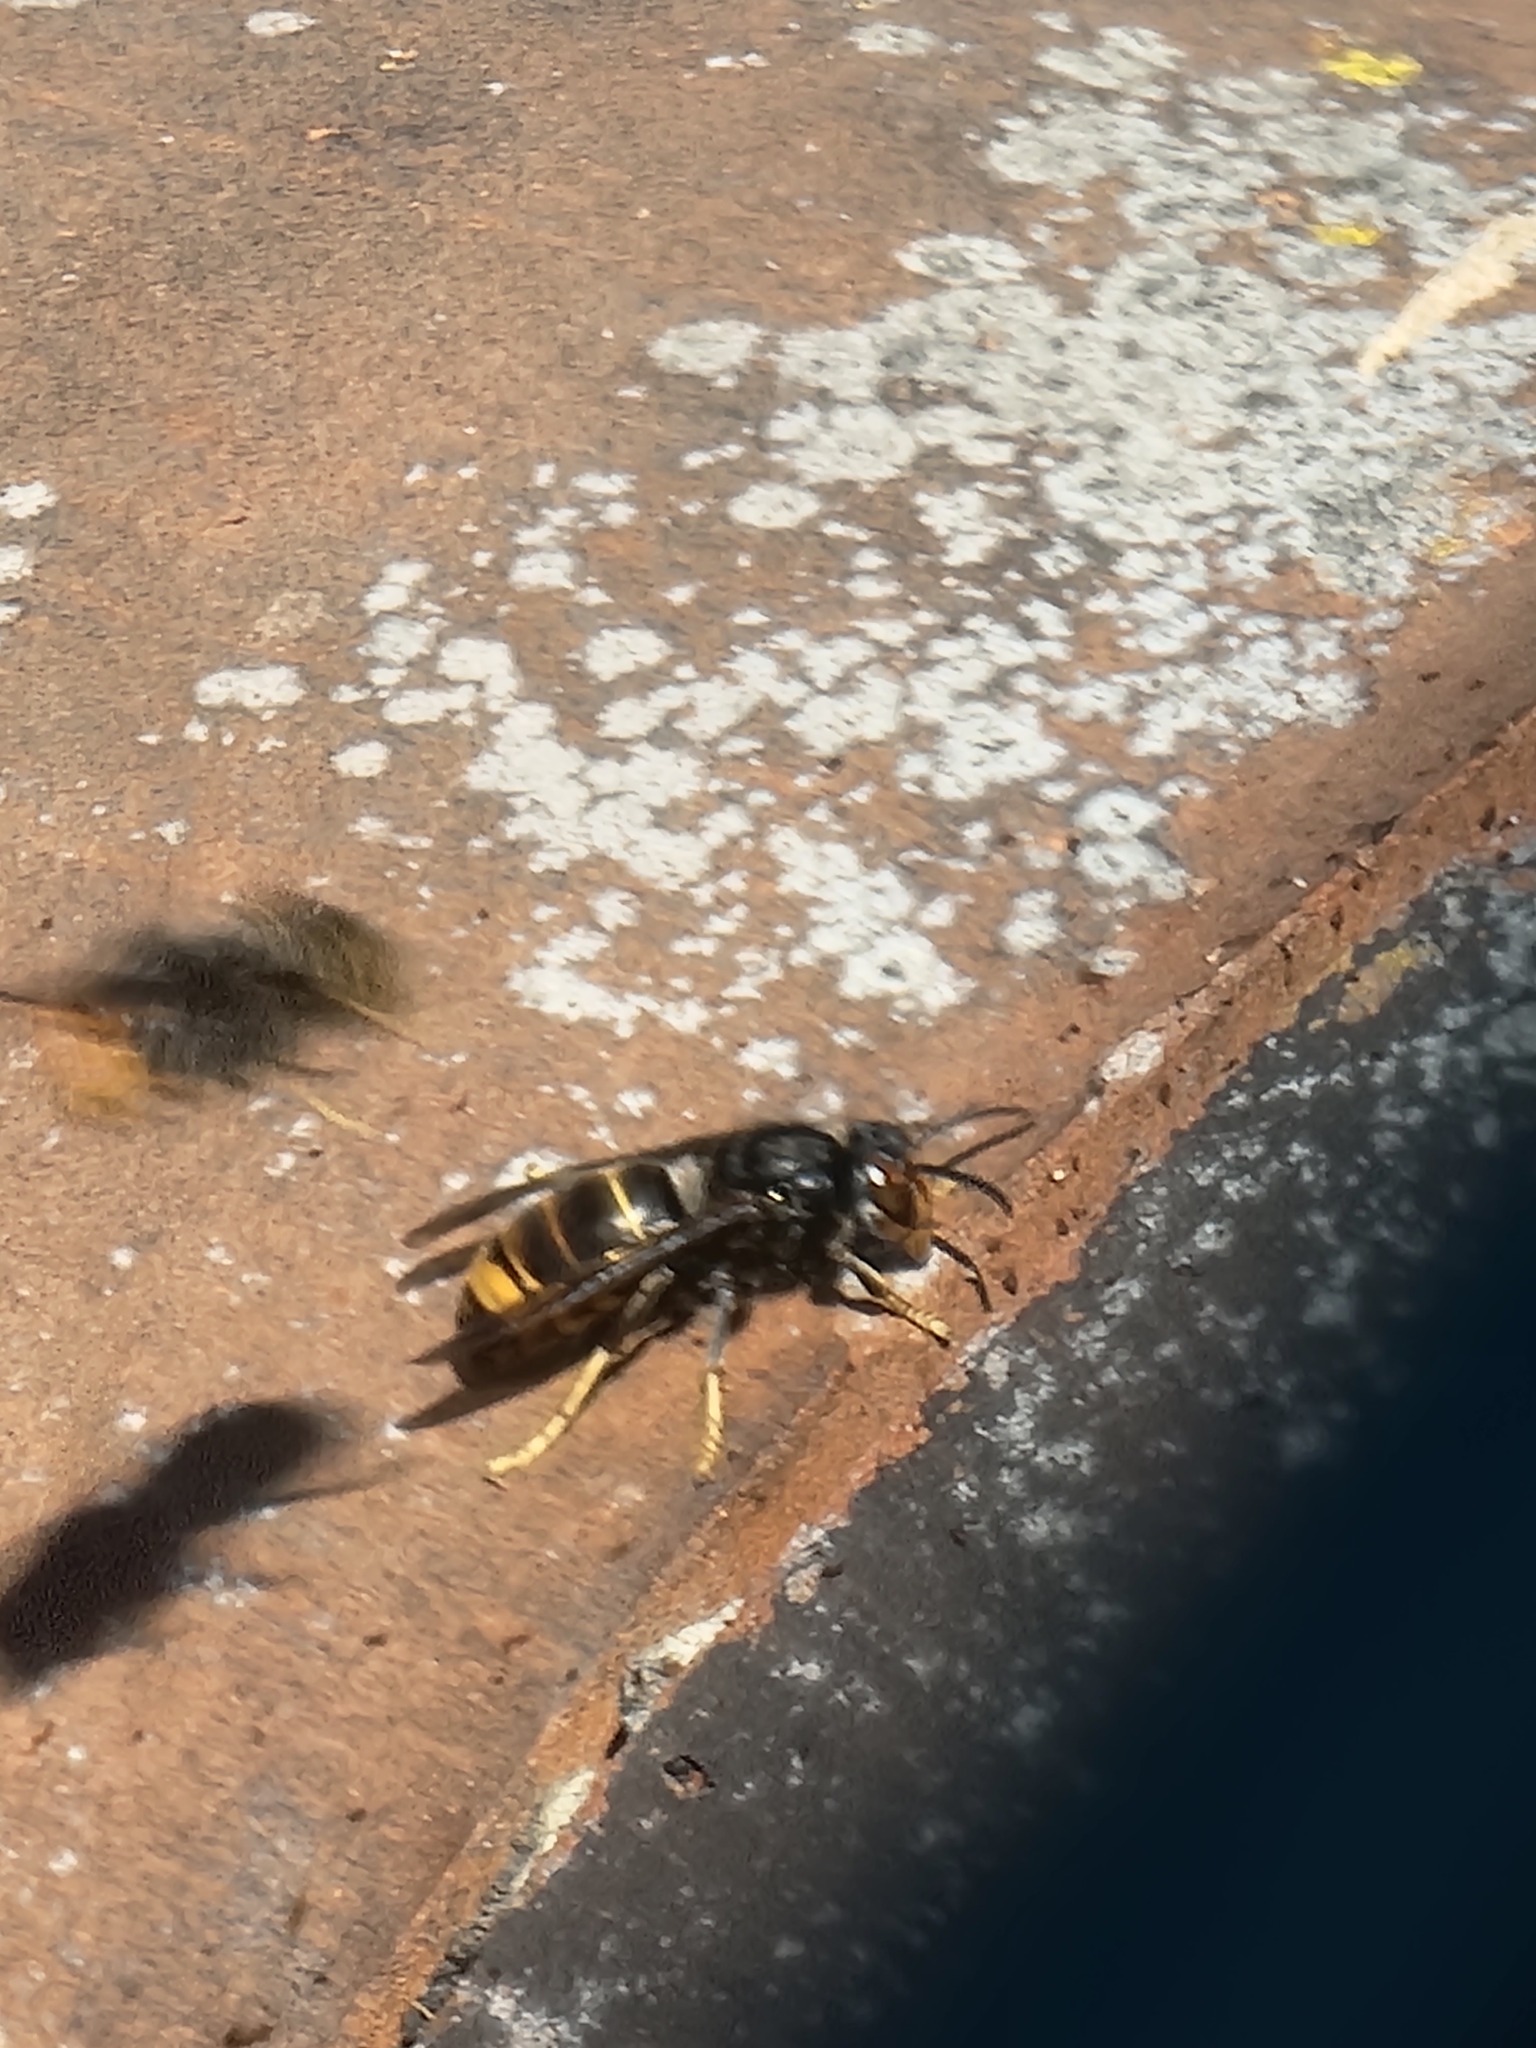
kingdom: Animalia
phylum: Arthropoda
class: Insecta
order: Hymenoptera
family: Vespidae
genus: Vespa
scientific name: Vespa velutina
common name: Asian hornet
